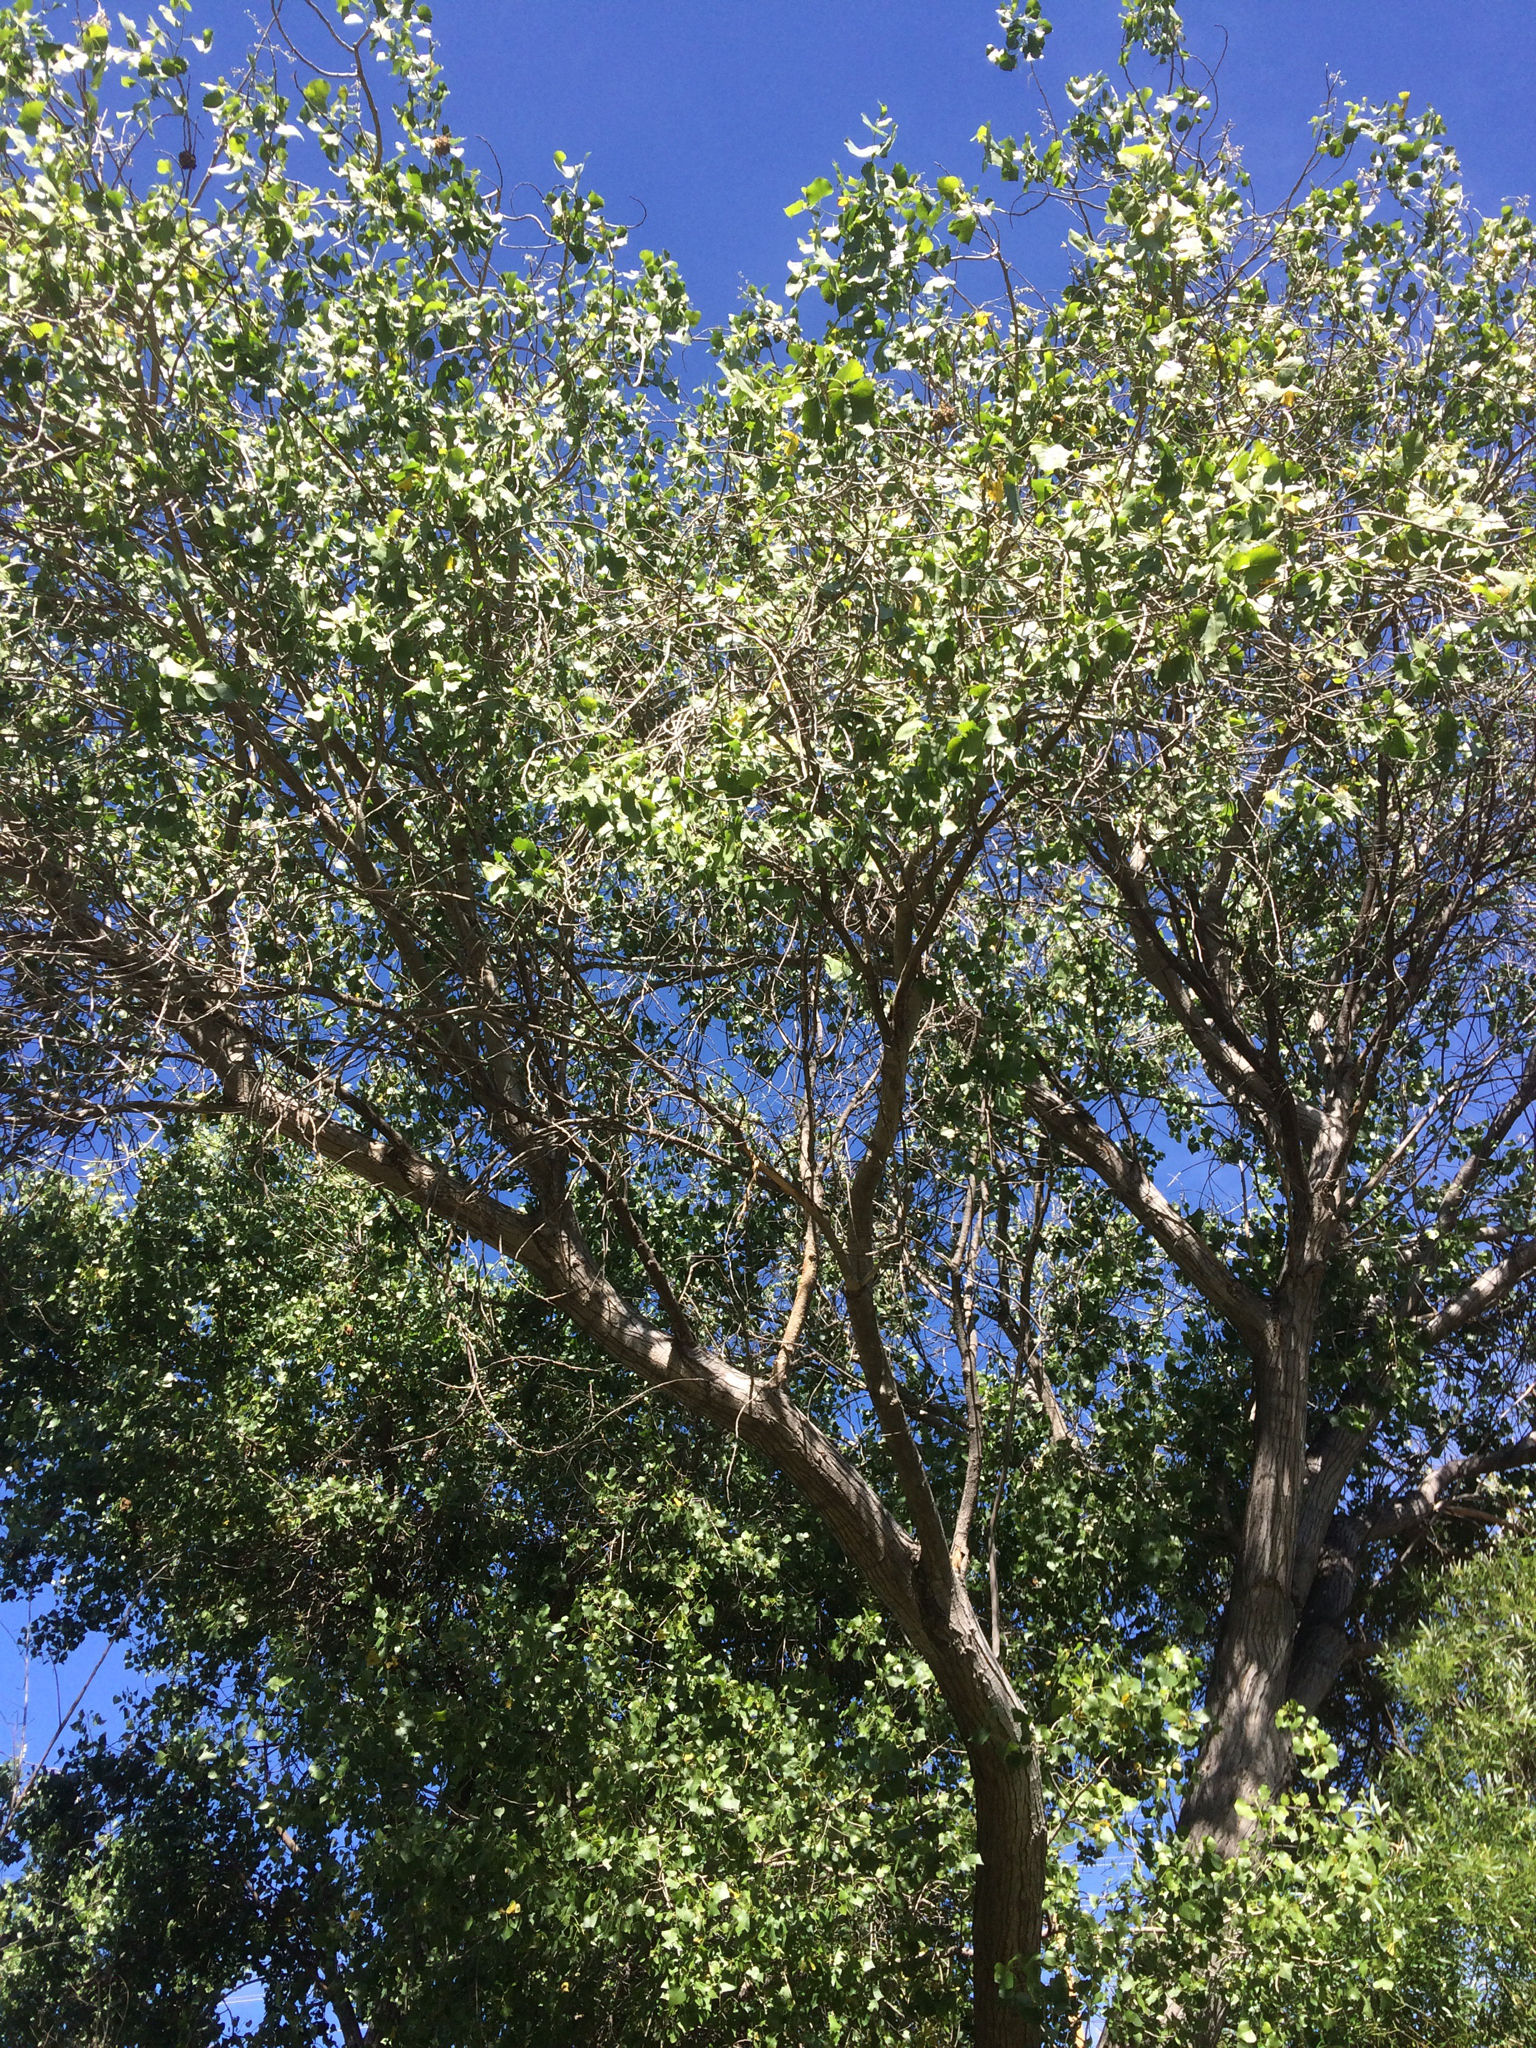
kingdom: Plantae
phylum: Tracheophyta
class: Magnoliopsida
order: Malpighiales
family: Salicaceae
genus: Populus
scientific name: Populus fremontii
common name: Fremont's cottonwood
